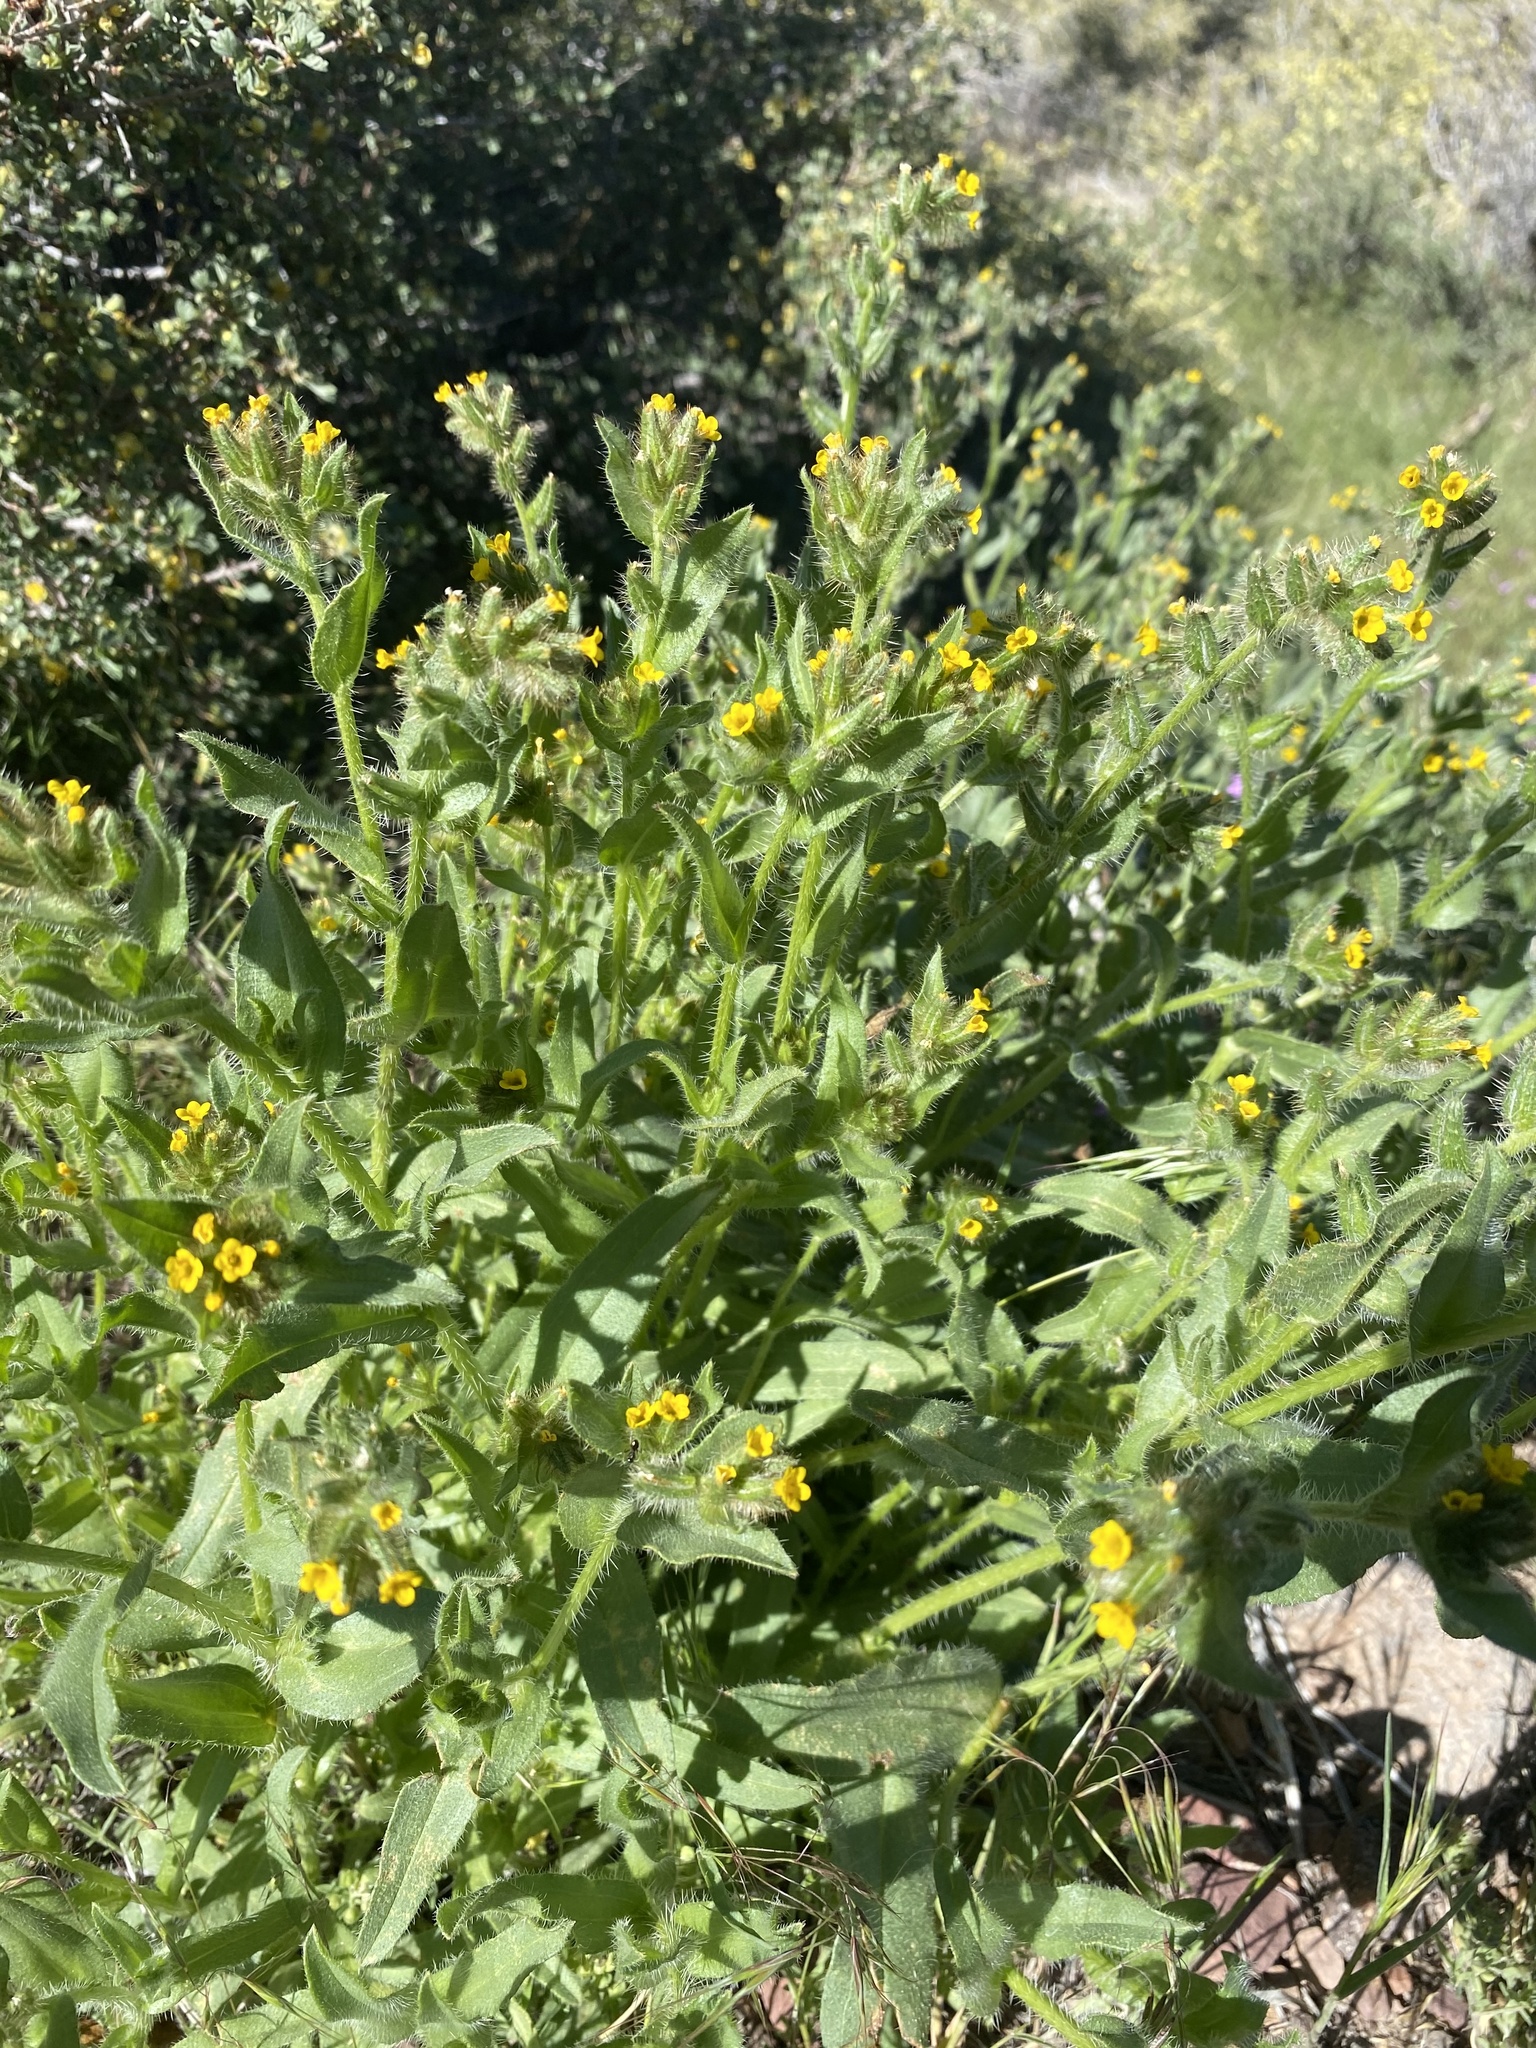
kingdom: Plantae
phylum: Tracheophyta
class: Magnoliopsida
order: Boraginales
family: Boraginaceae
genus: Amsinckia
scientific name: Amsinckia tessellata
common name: Tessellate fiddleneck
